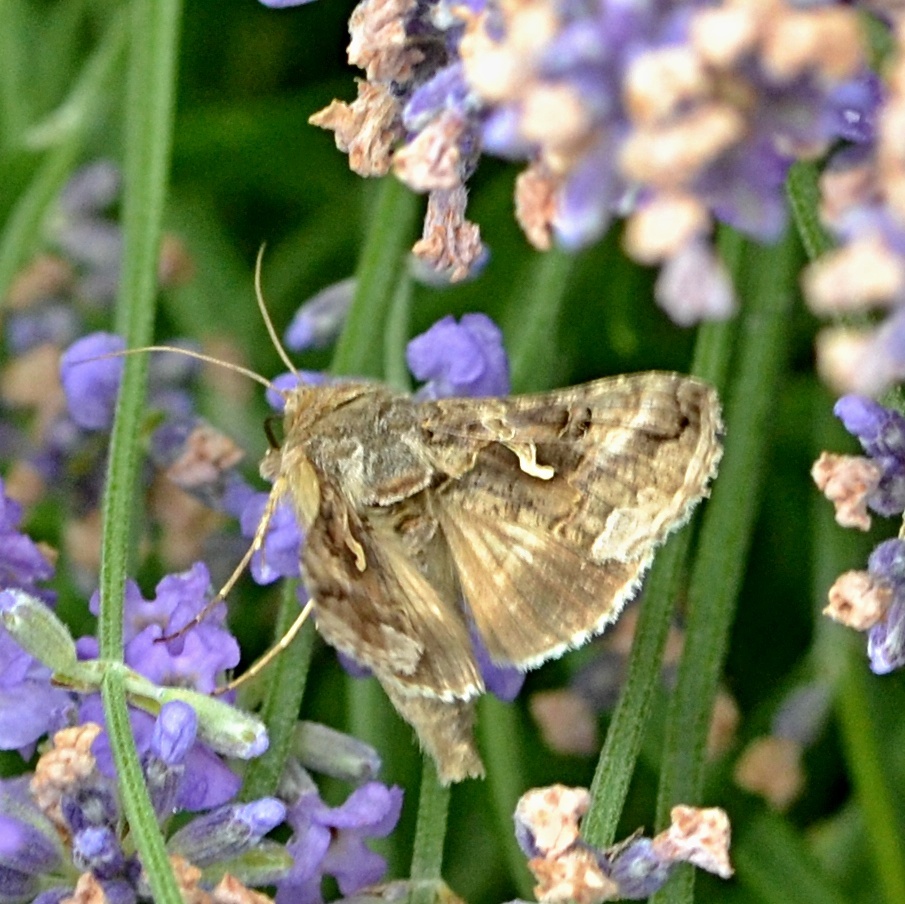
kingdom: Animalia
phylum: Arthropoda
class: Insecta
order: Lepidoptera
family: Noctuidae
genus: Autographa
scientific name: Autographa gamma
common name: Silver y
